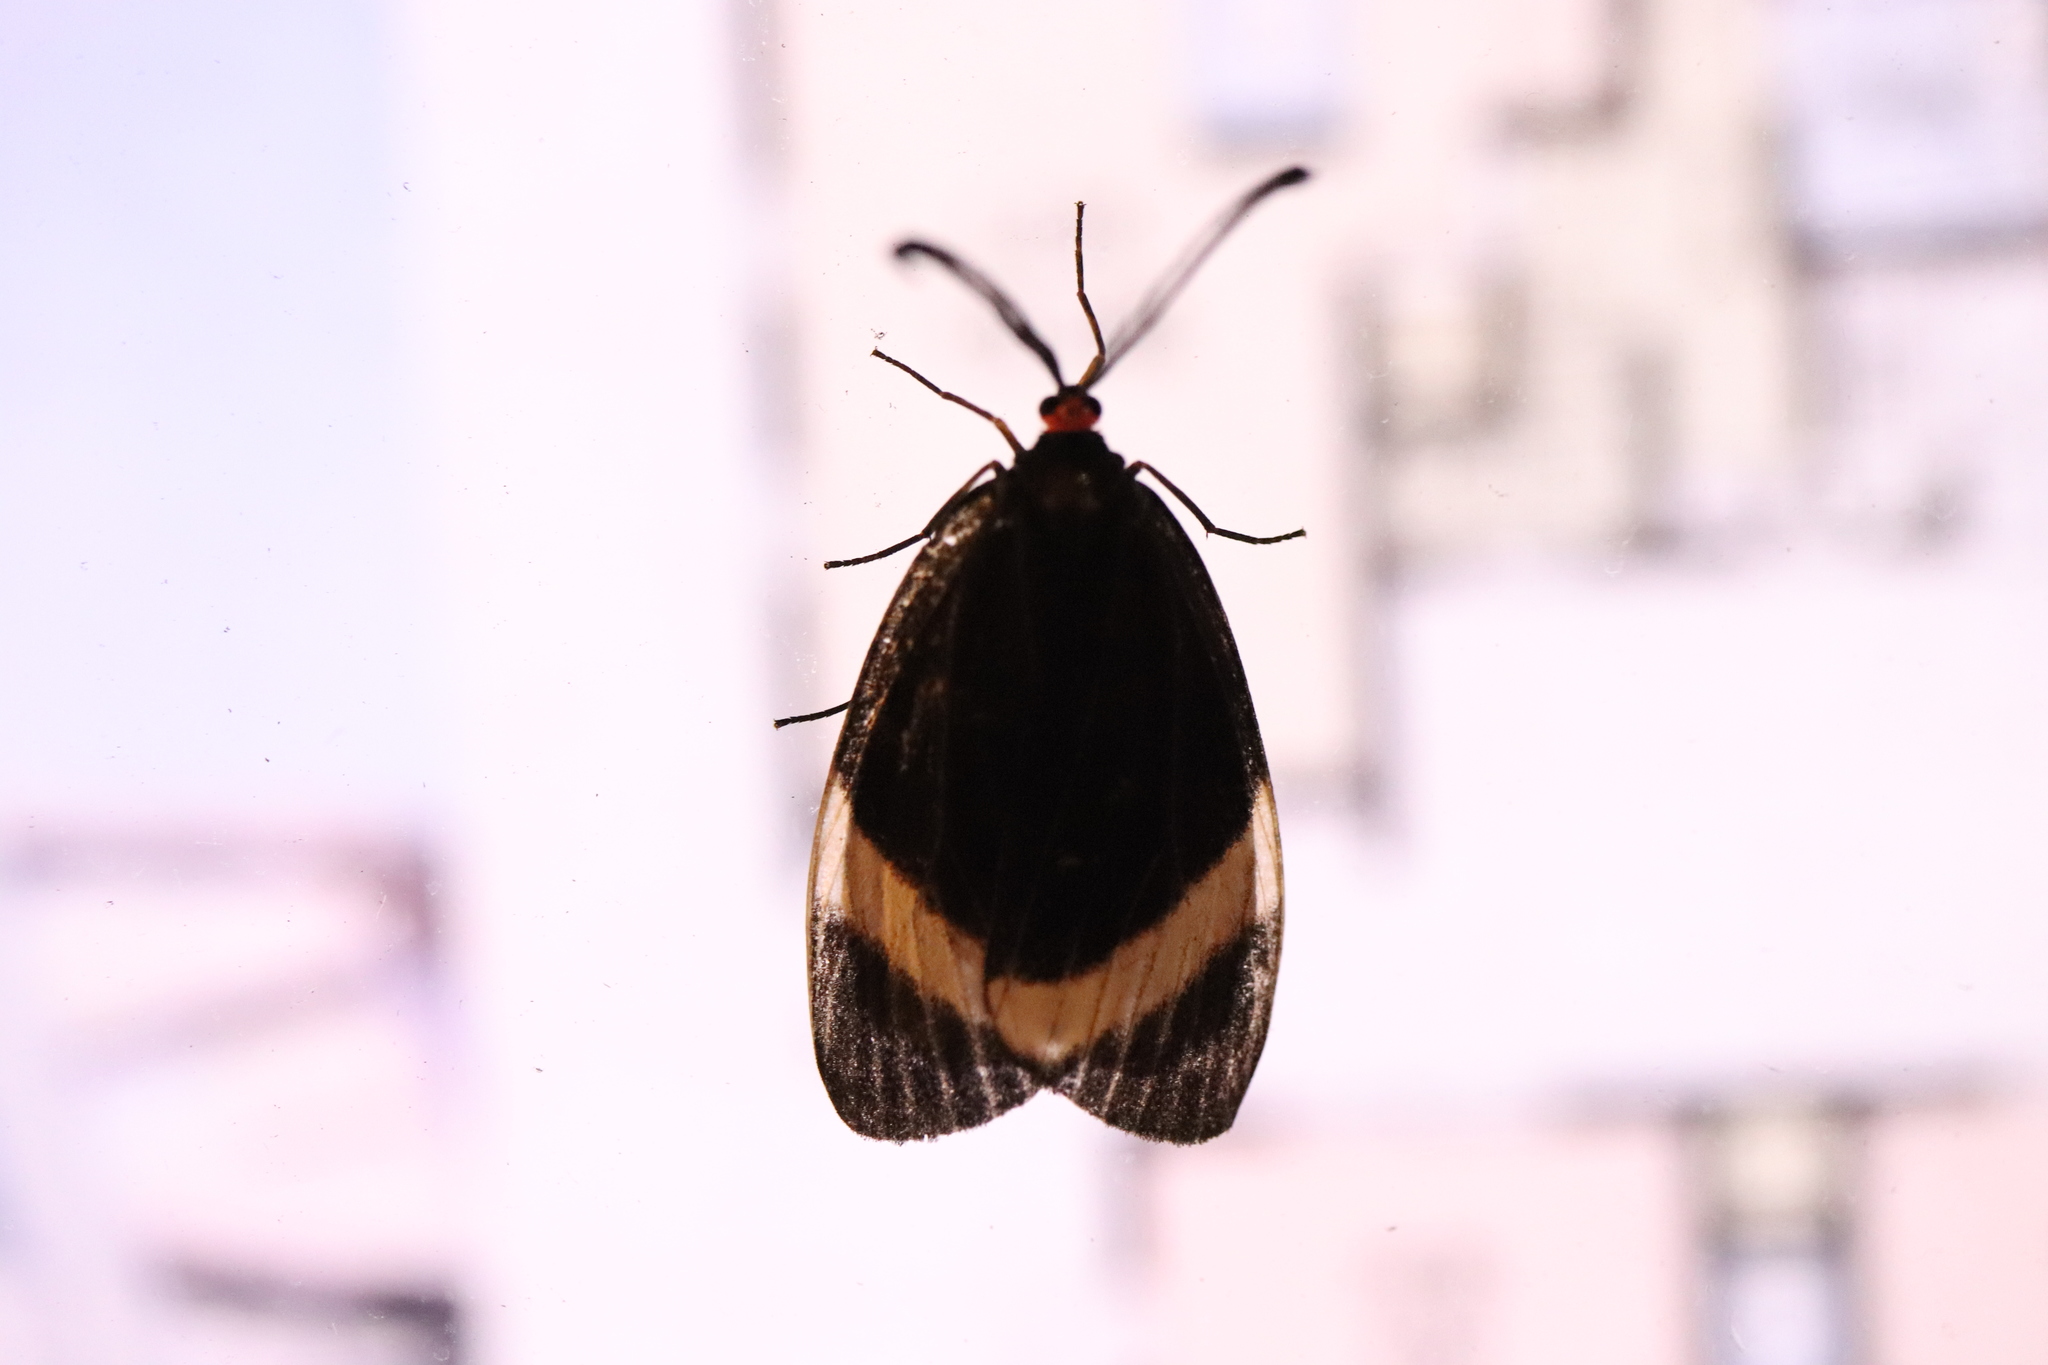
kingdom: Animalia
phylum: Arthropoda
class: Insecta
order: Lepidoptera
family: Zygaenidae
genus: Pidorus
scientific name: Pidorus glaucopis
